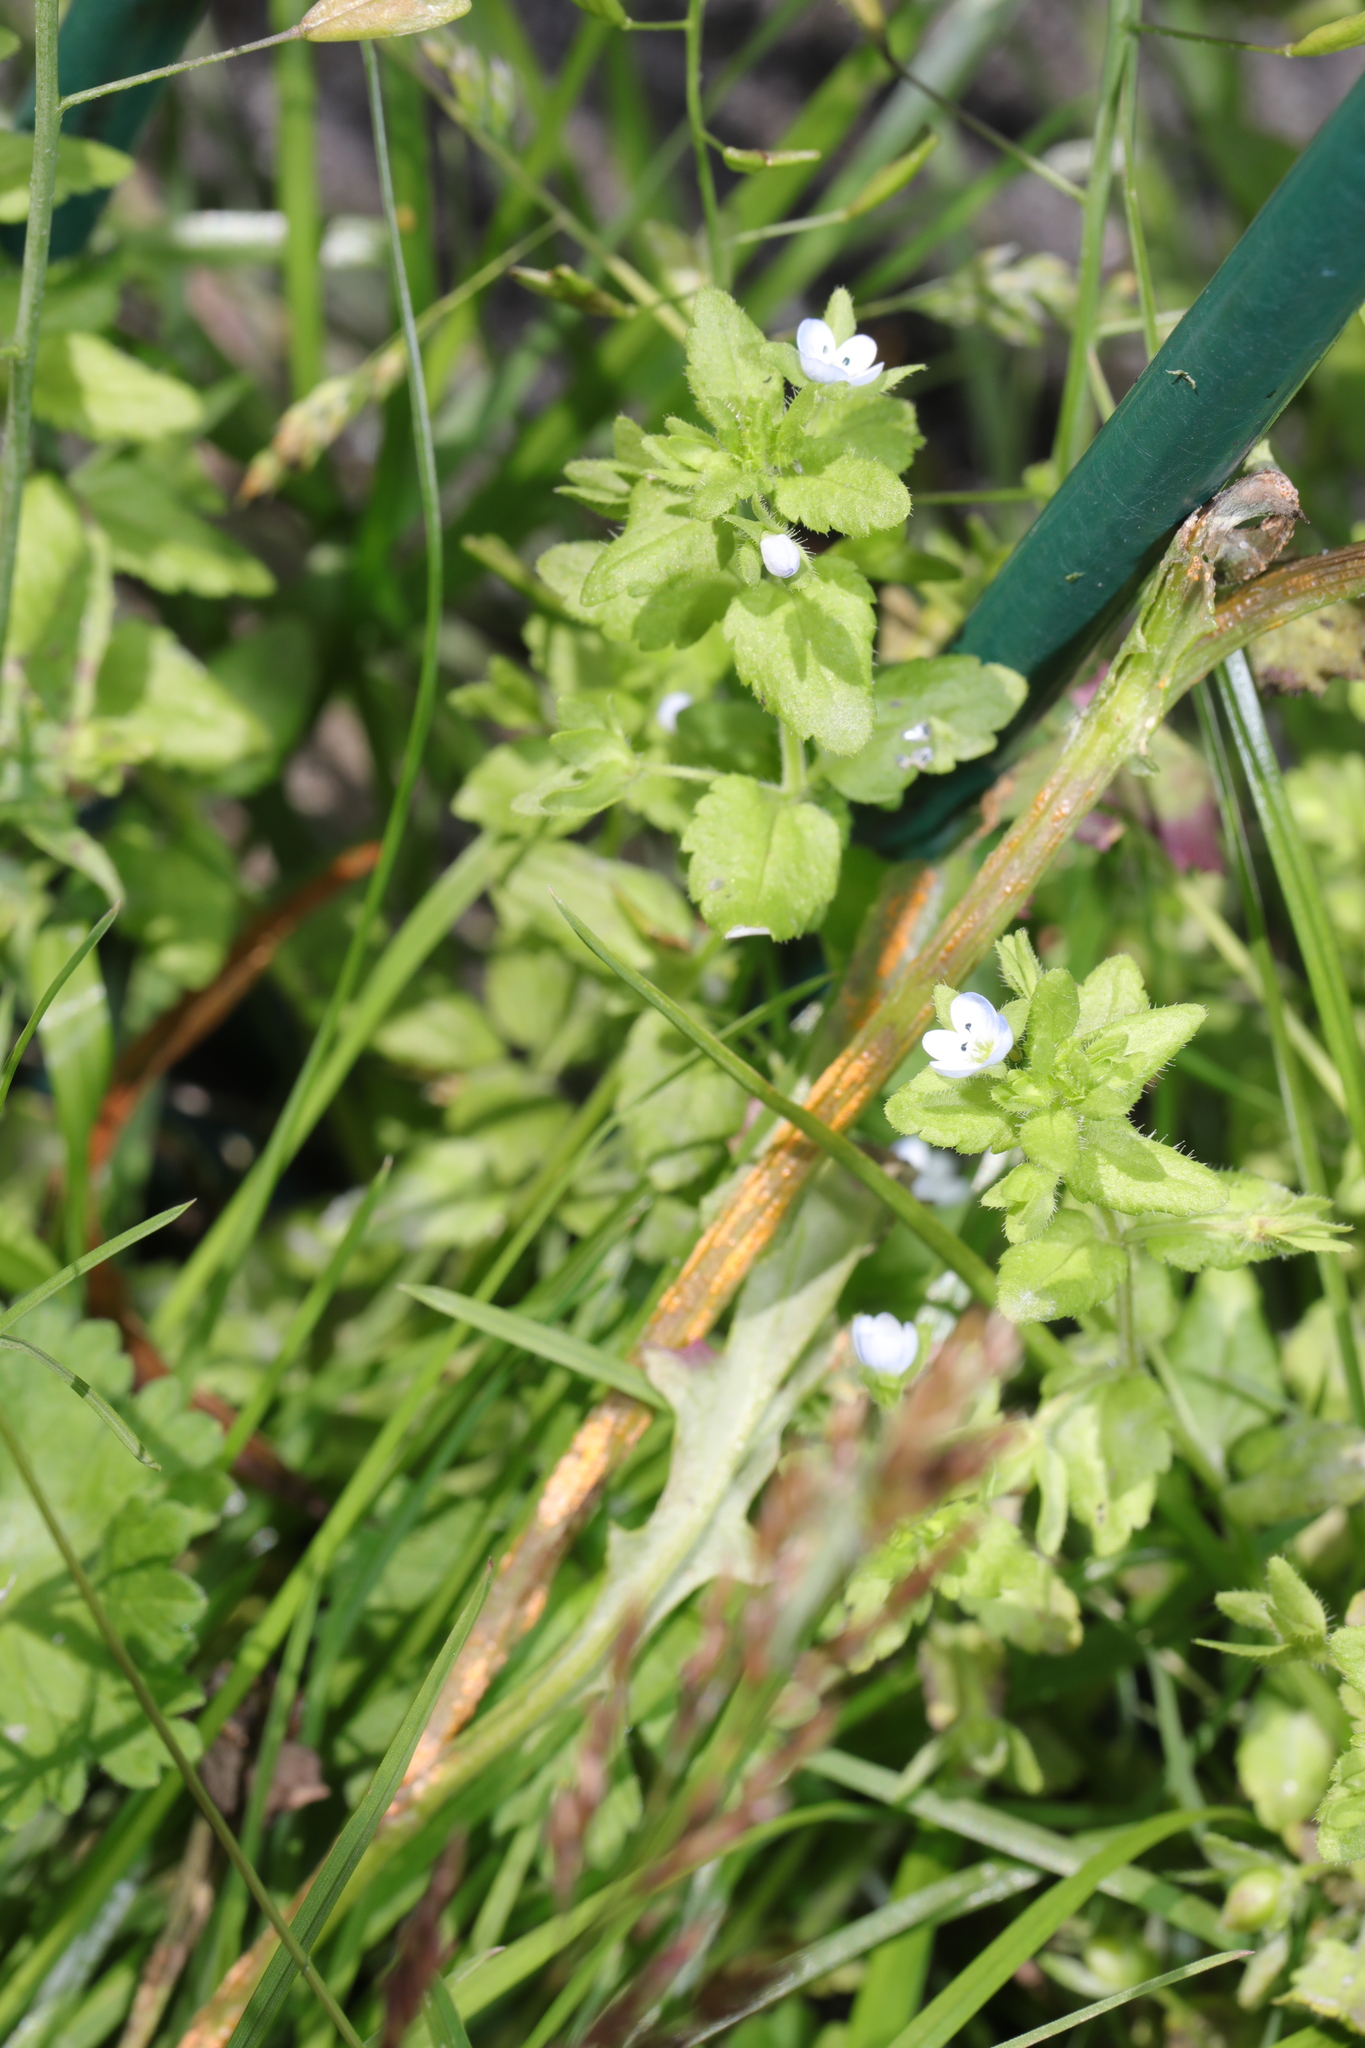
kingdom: Plantae
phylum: Tracheophyta
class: Magnoliopsida
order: Lamiales
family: Plantaginaceae
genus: Veronica
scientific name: Veronica agrestis
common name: Green field-speedwell
